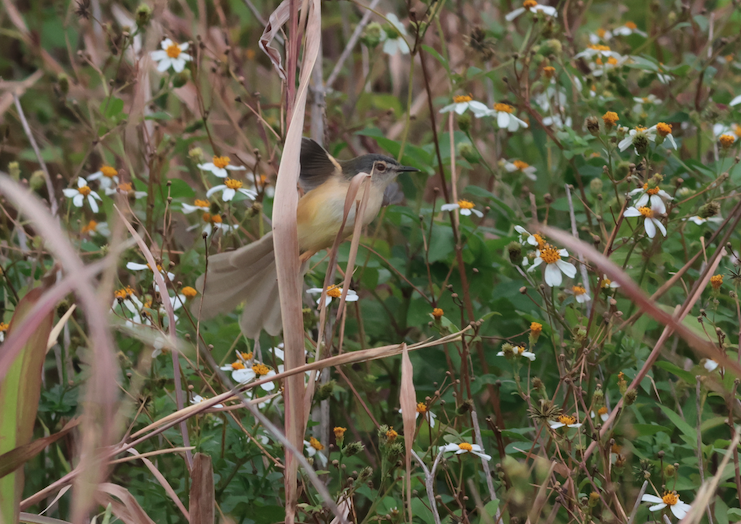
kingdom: Animalia
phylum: Chordata
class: Aves
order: Passeriformes
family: Cisticolidae
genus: Prinia
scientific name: Prinia flaviventris
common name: Yellow-bellied prinia
